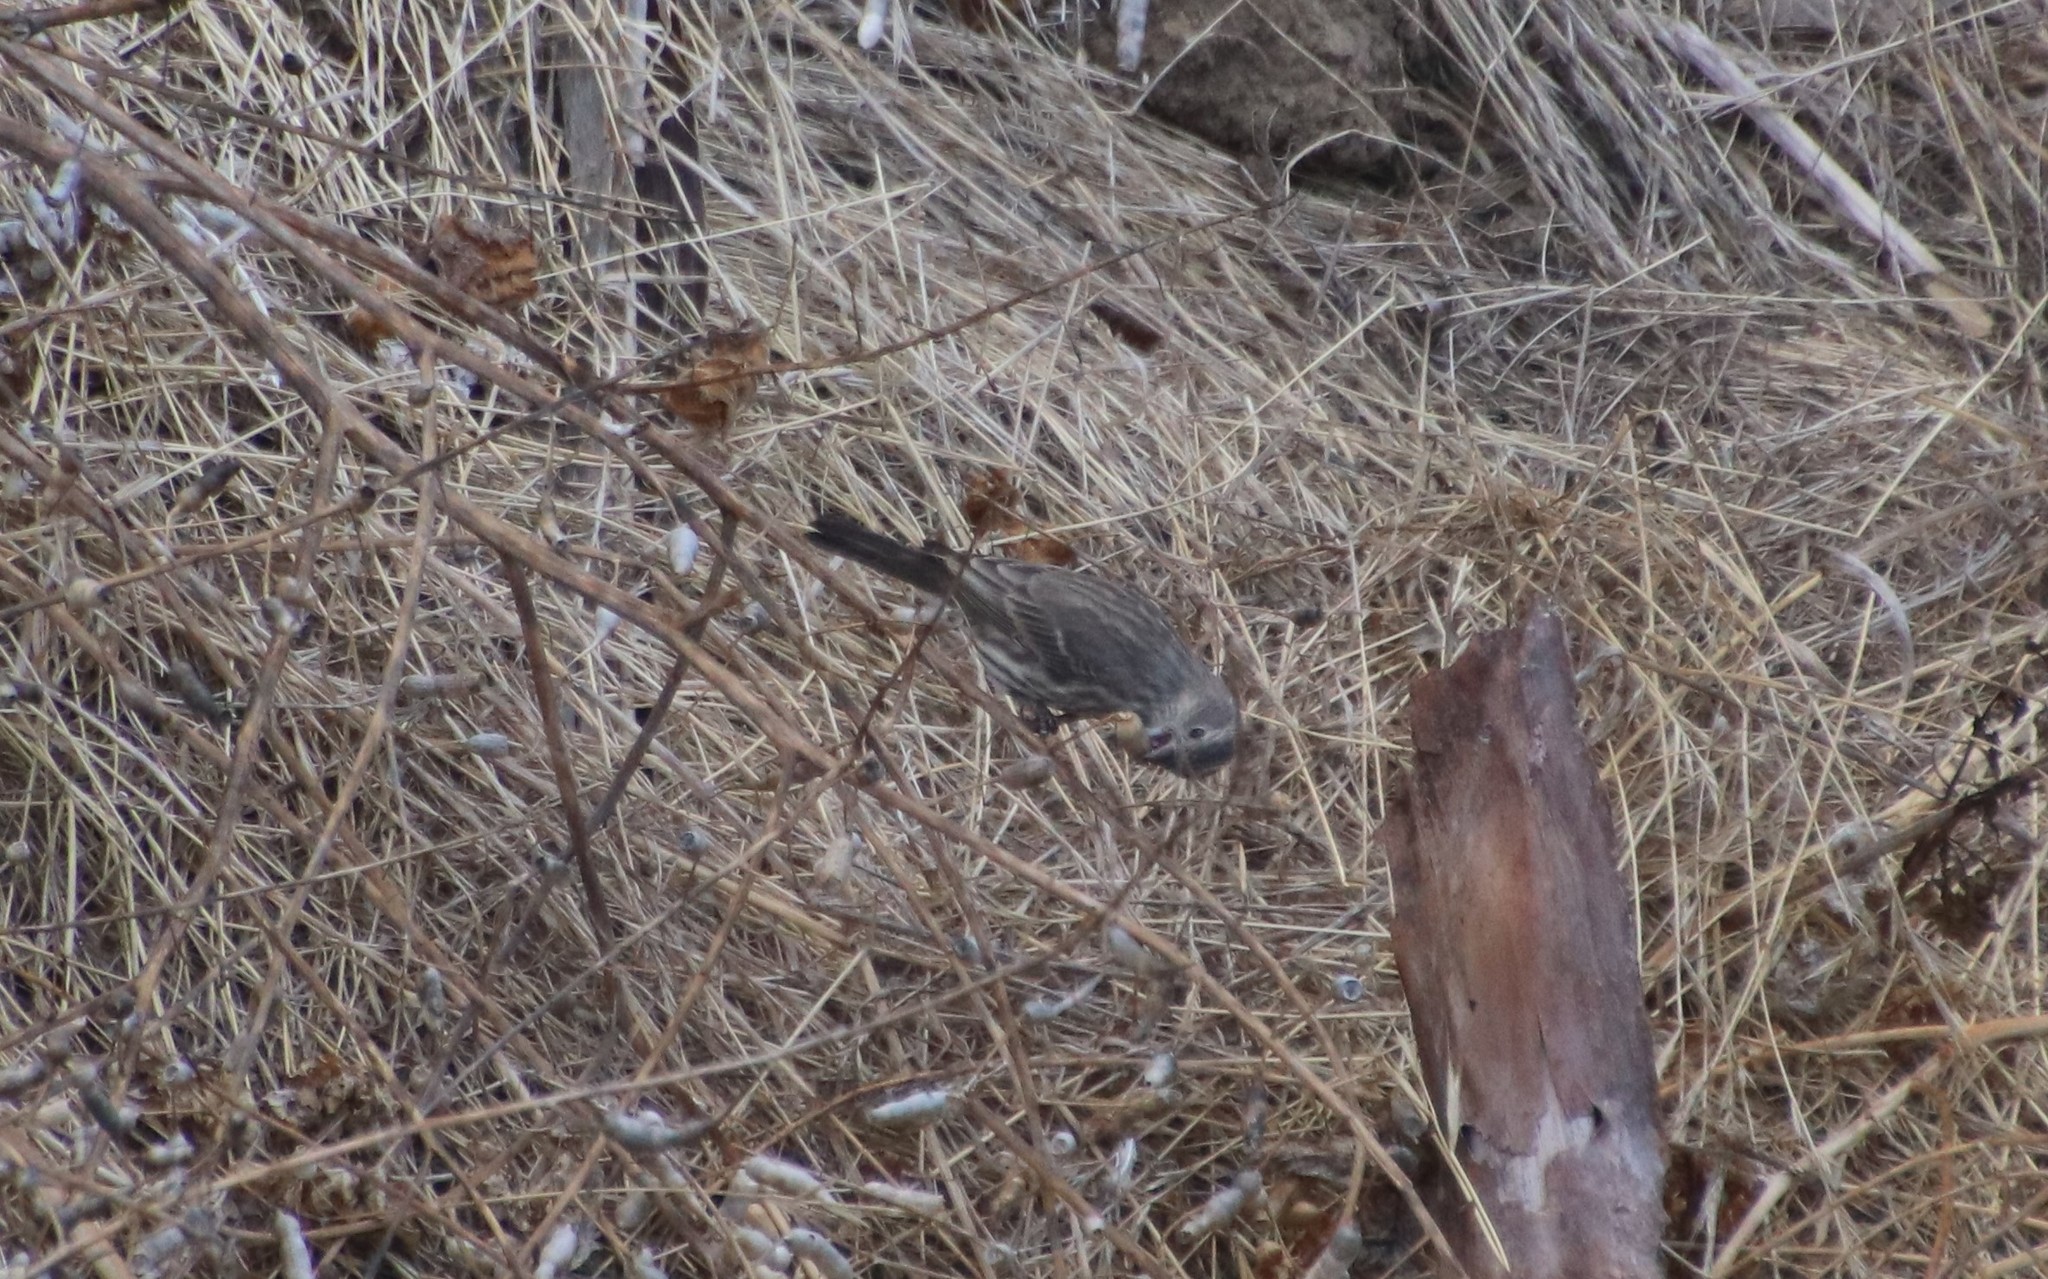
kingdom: Animalia
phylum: Chordata
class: Aves
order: Passeriformes
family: Fringillidae
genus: Haemorhous
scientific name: Haemorhous mexicanus
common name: House finch
